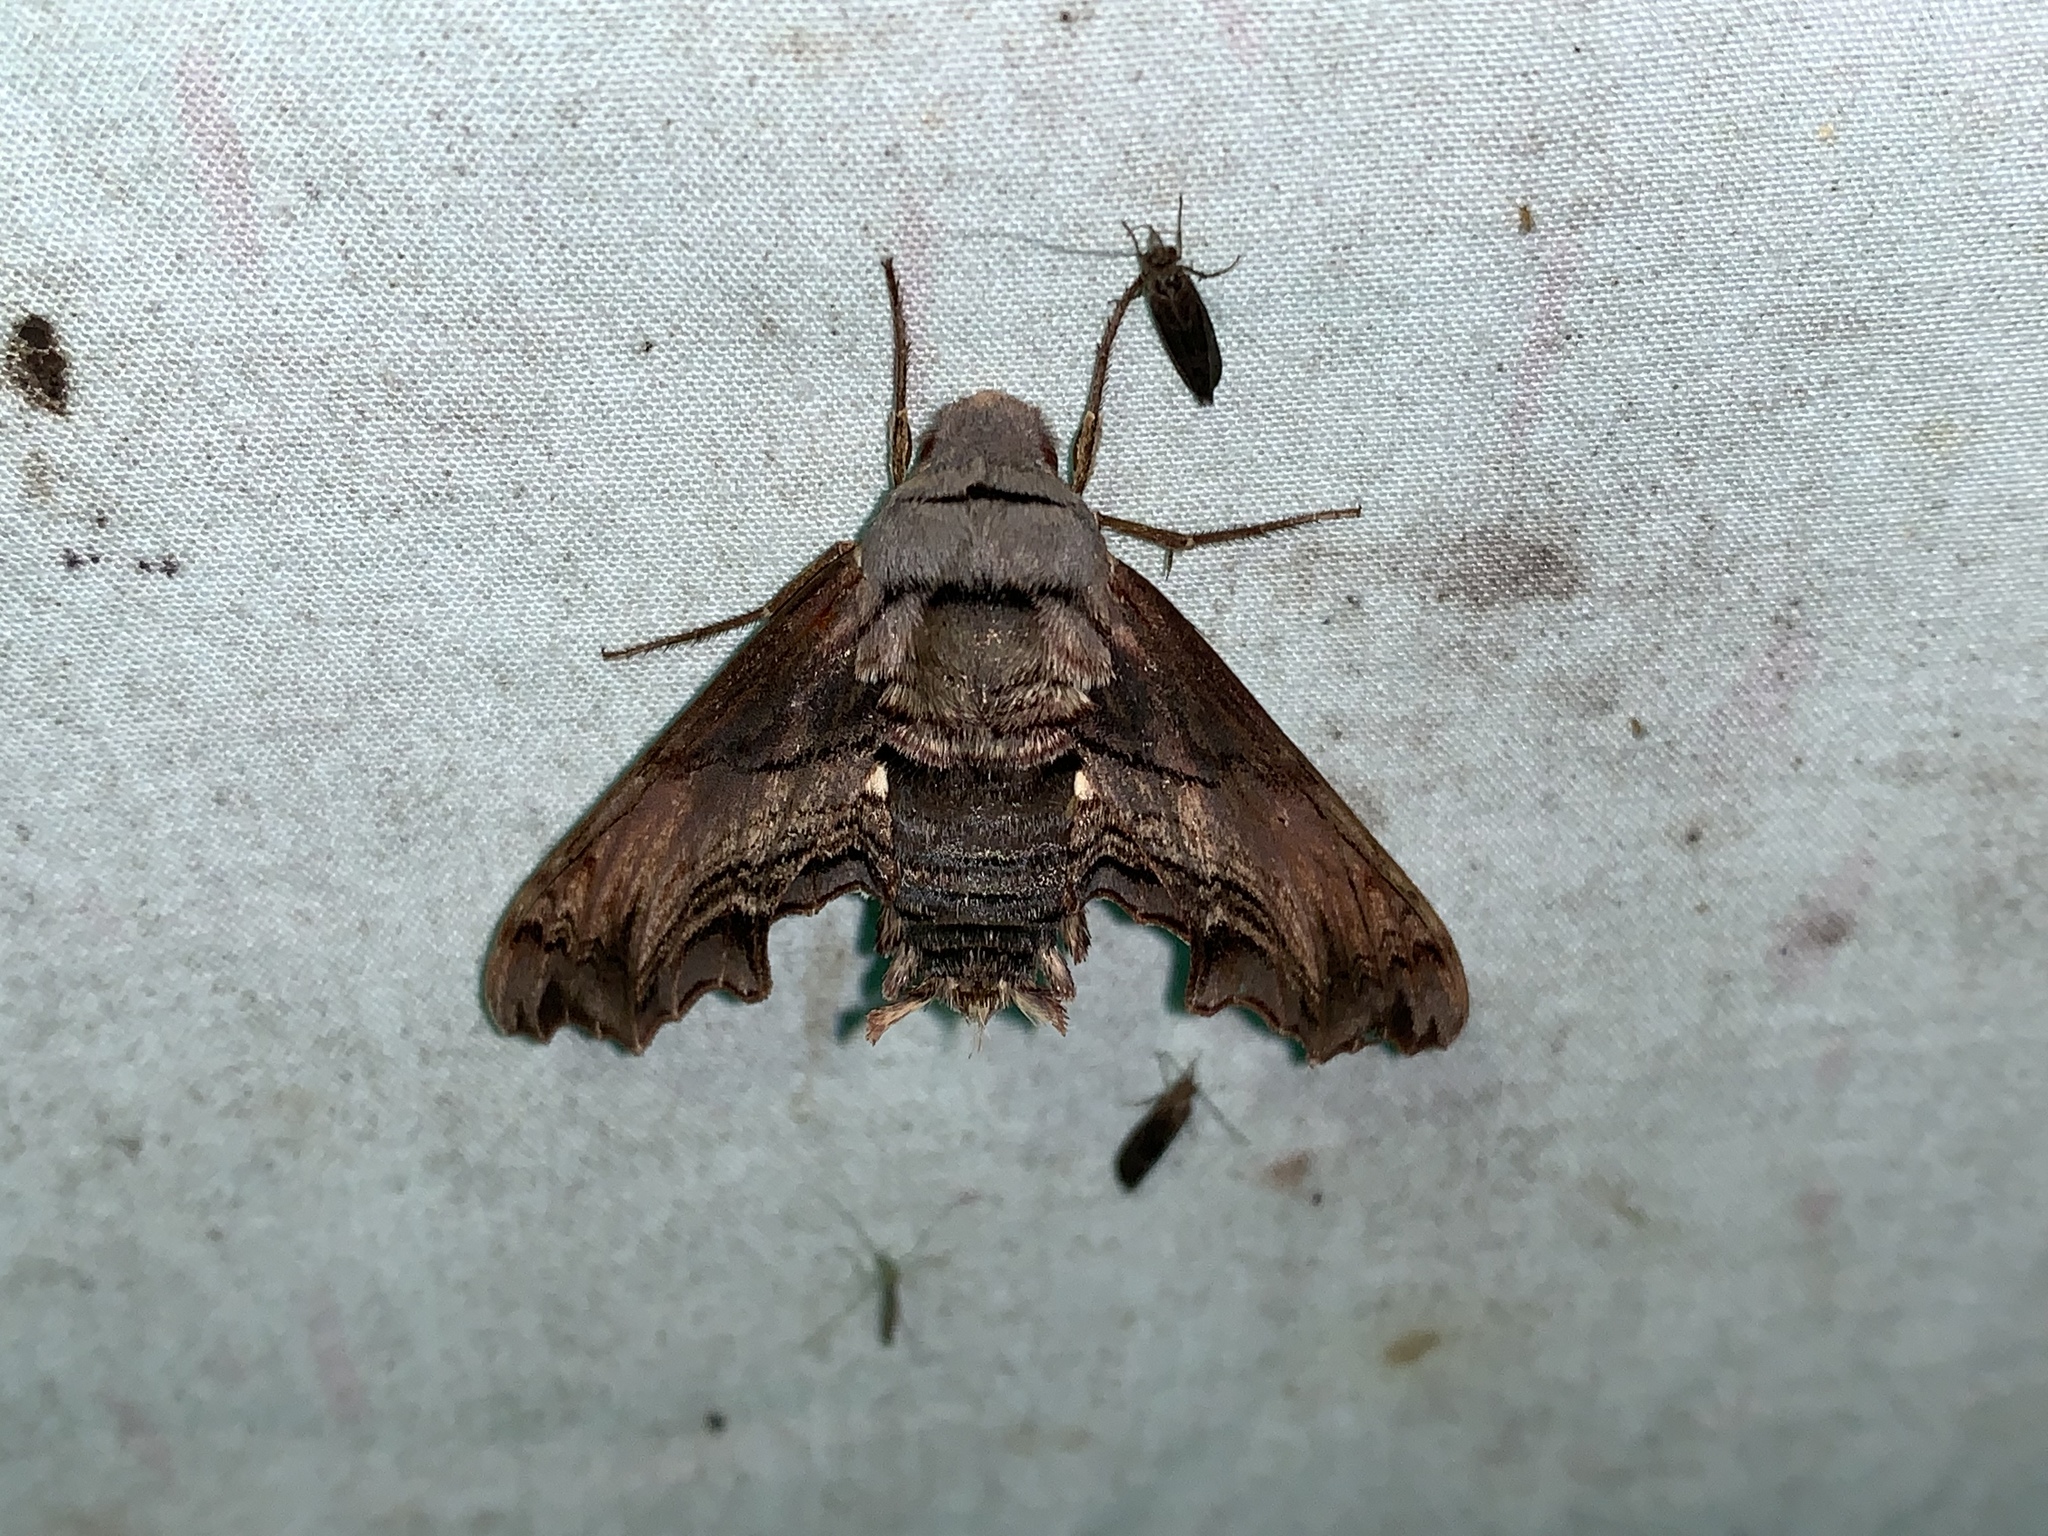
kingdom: Animalia
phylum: Arthropoda
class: Insecta
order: Lepidoptera
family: Sphingidae
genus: Sphecodina
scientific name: Sphecodina abbottii
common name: Abbott's sphinx
